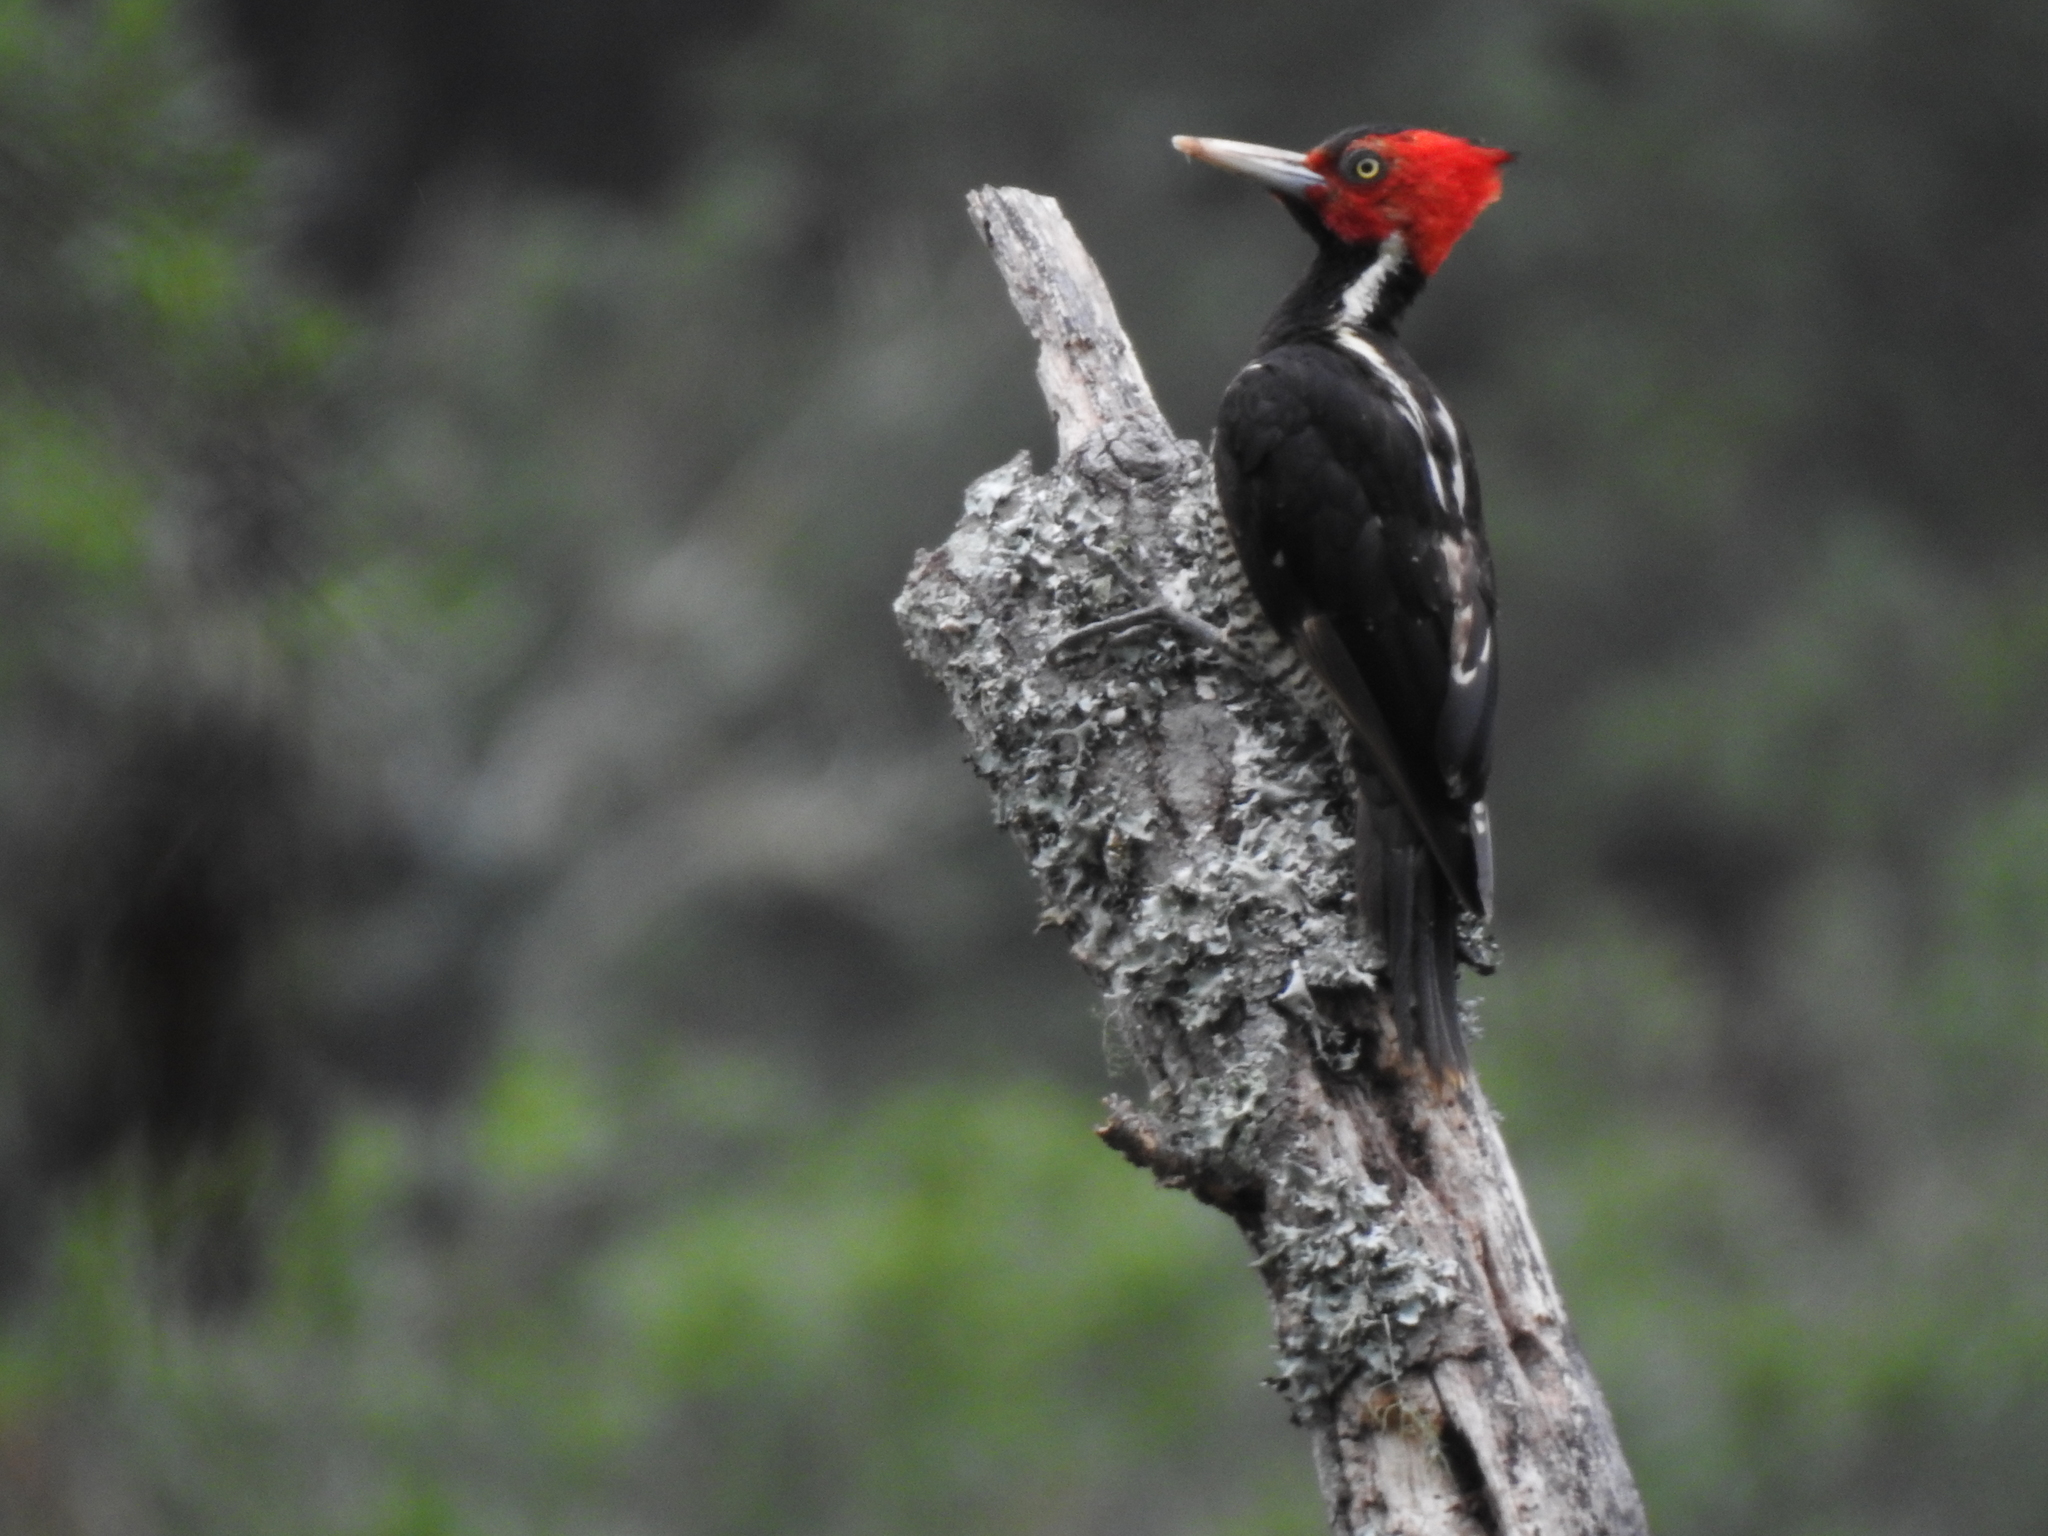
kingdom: Animalia
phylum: Chordata
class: Aves
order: Piciformes
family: Picidae
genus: Campephilus
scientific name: Campephilus guatemalensis
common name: Pale-billed woodpecker
